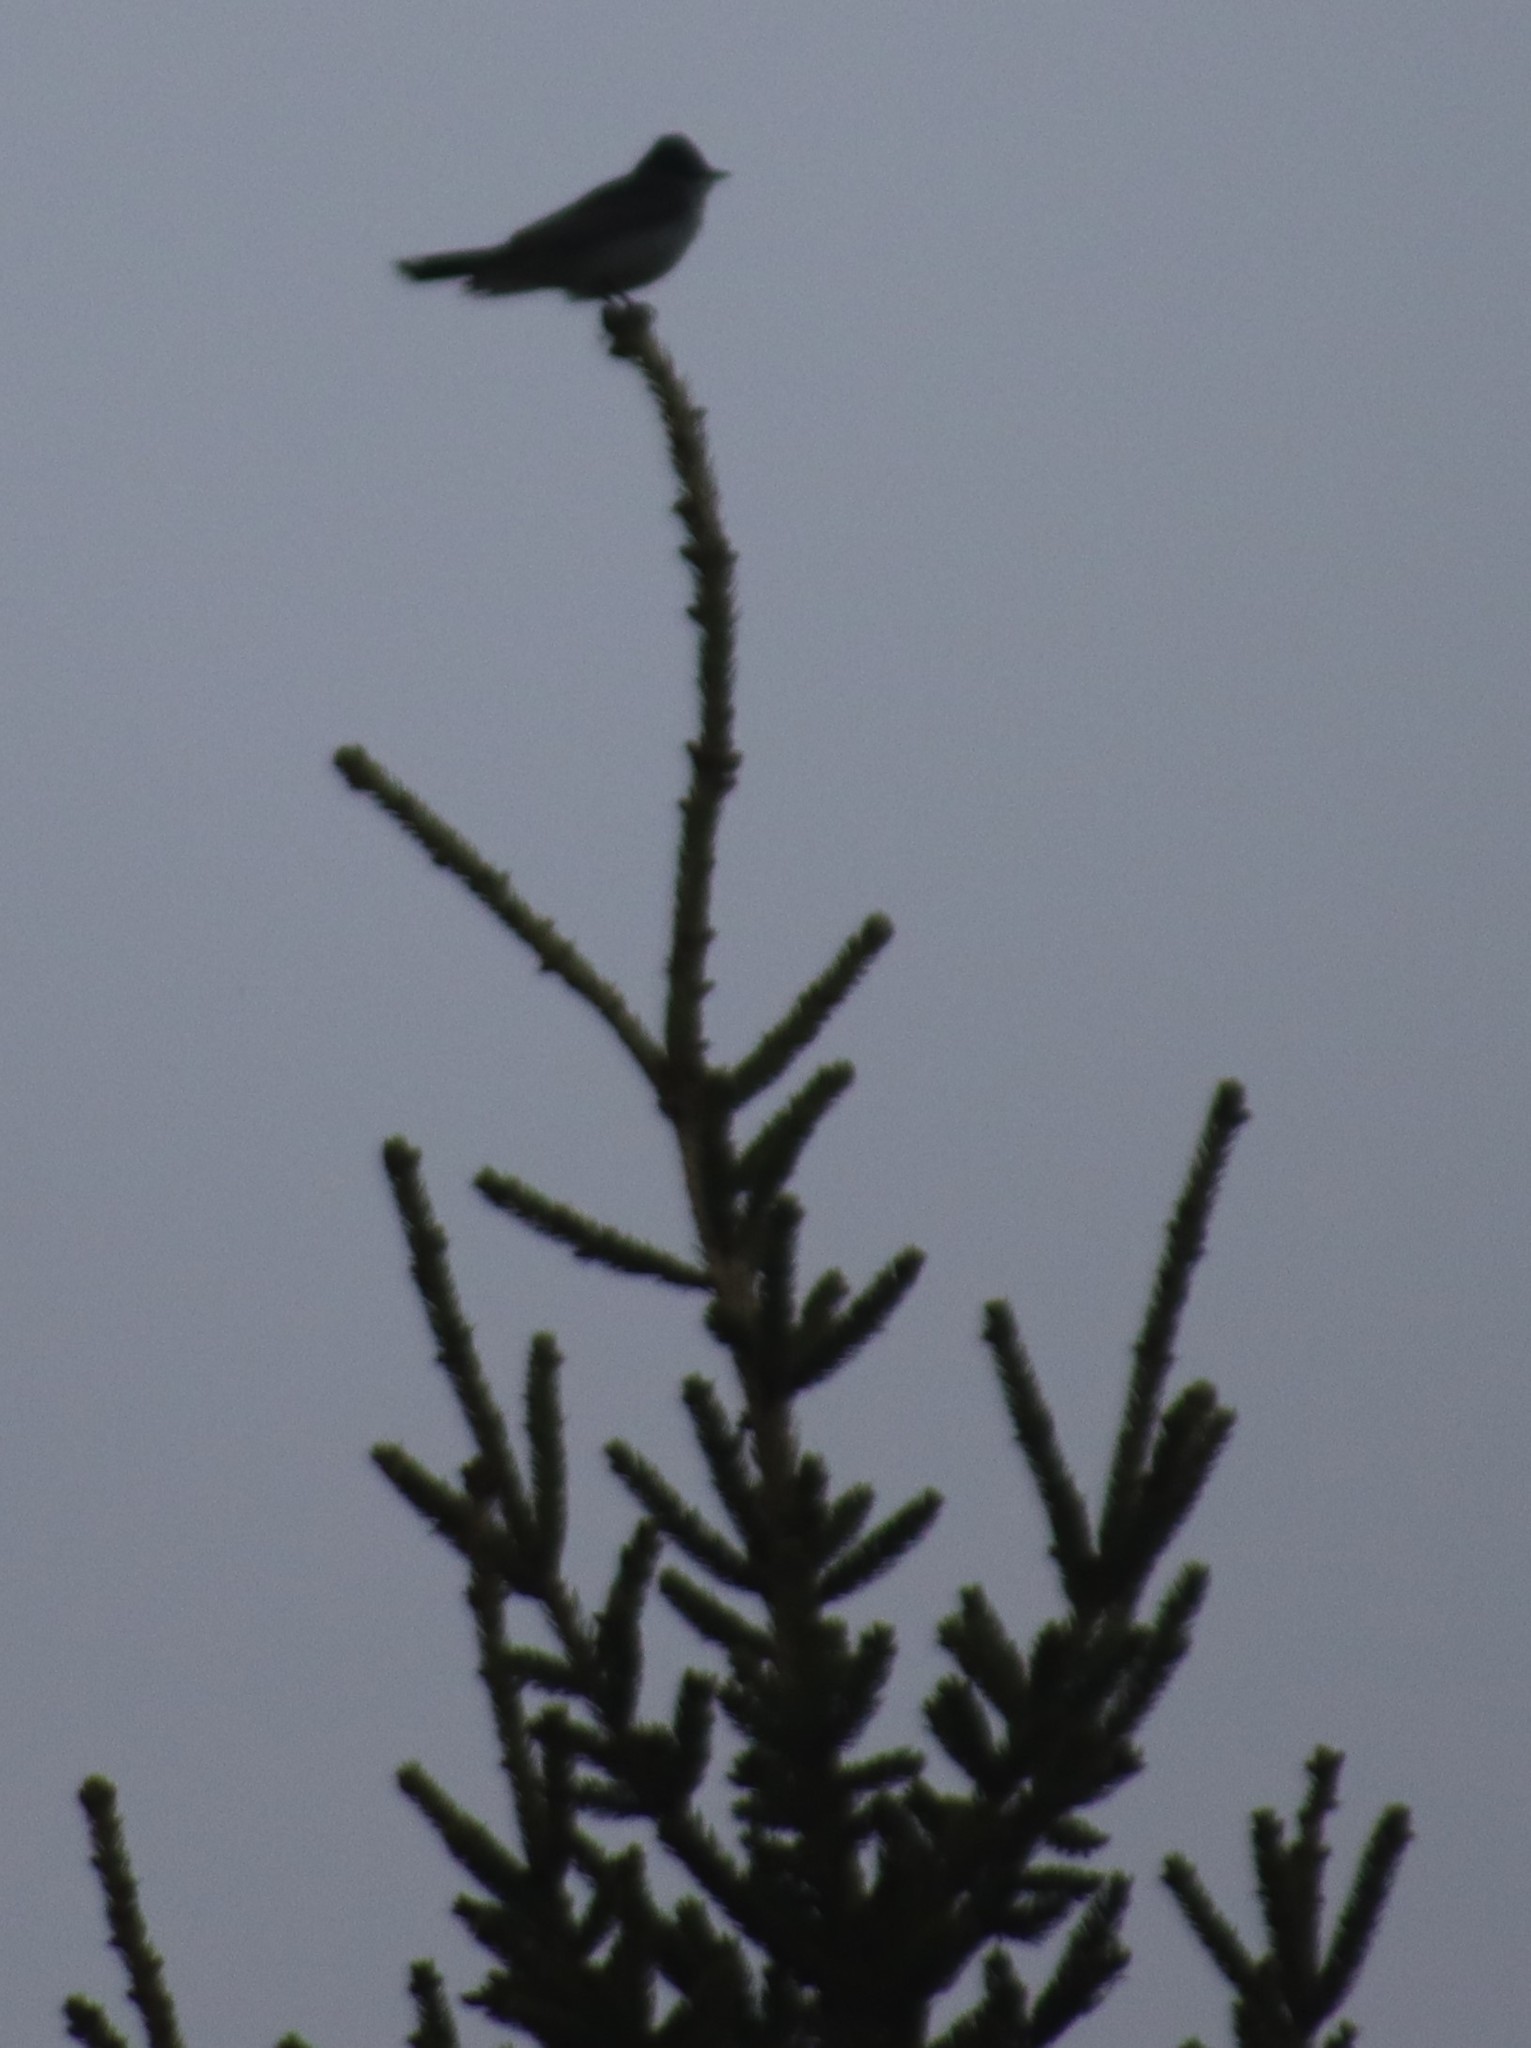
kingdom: Animalia
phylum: Chordata
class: Aves
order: Passeriformes
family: Tyrannidae
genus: Tyrannus
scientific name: Tyrannus tyrannus
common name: Eastern kingbird
